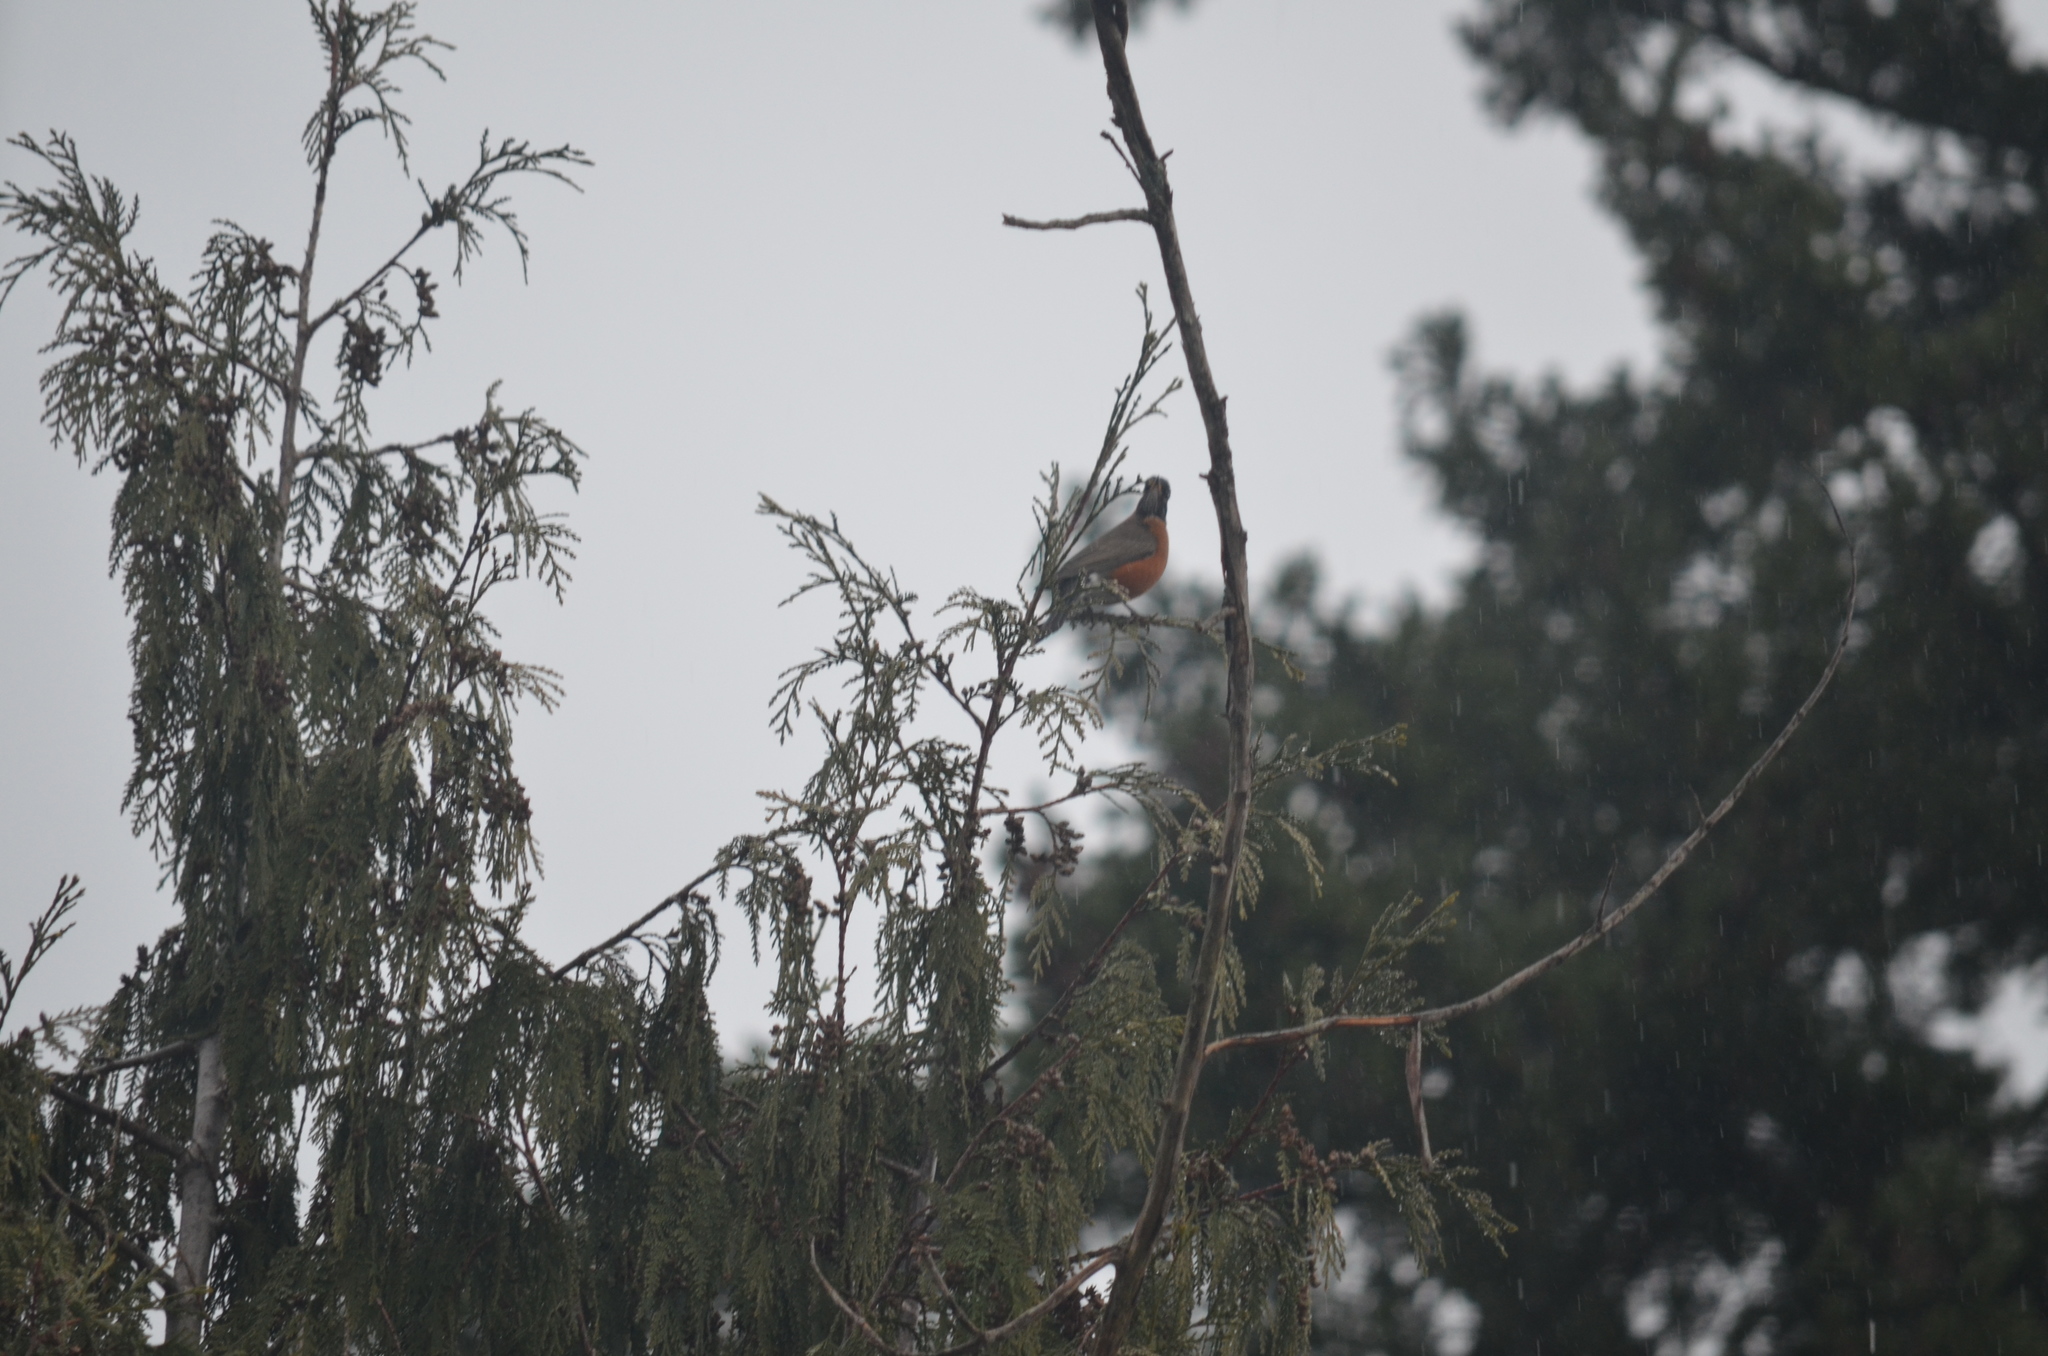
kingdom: Animalia
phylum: Chordata
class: Aves
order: Passeriformes
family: Turdidae
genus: Turdus
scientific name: Turdus migratorius
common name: American robin
